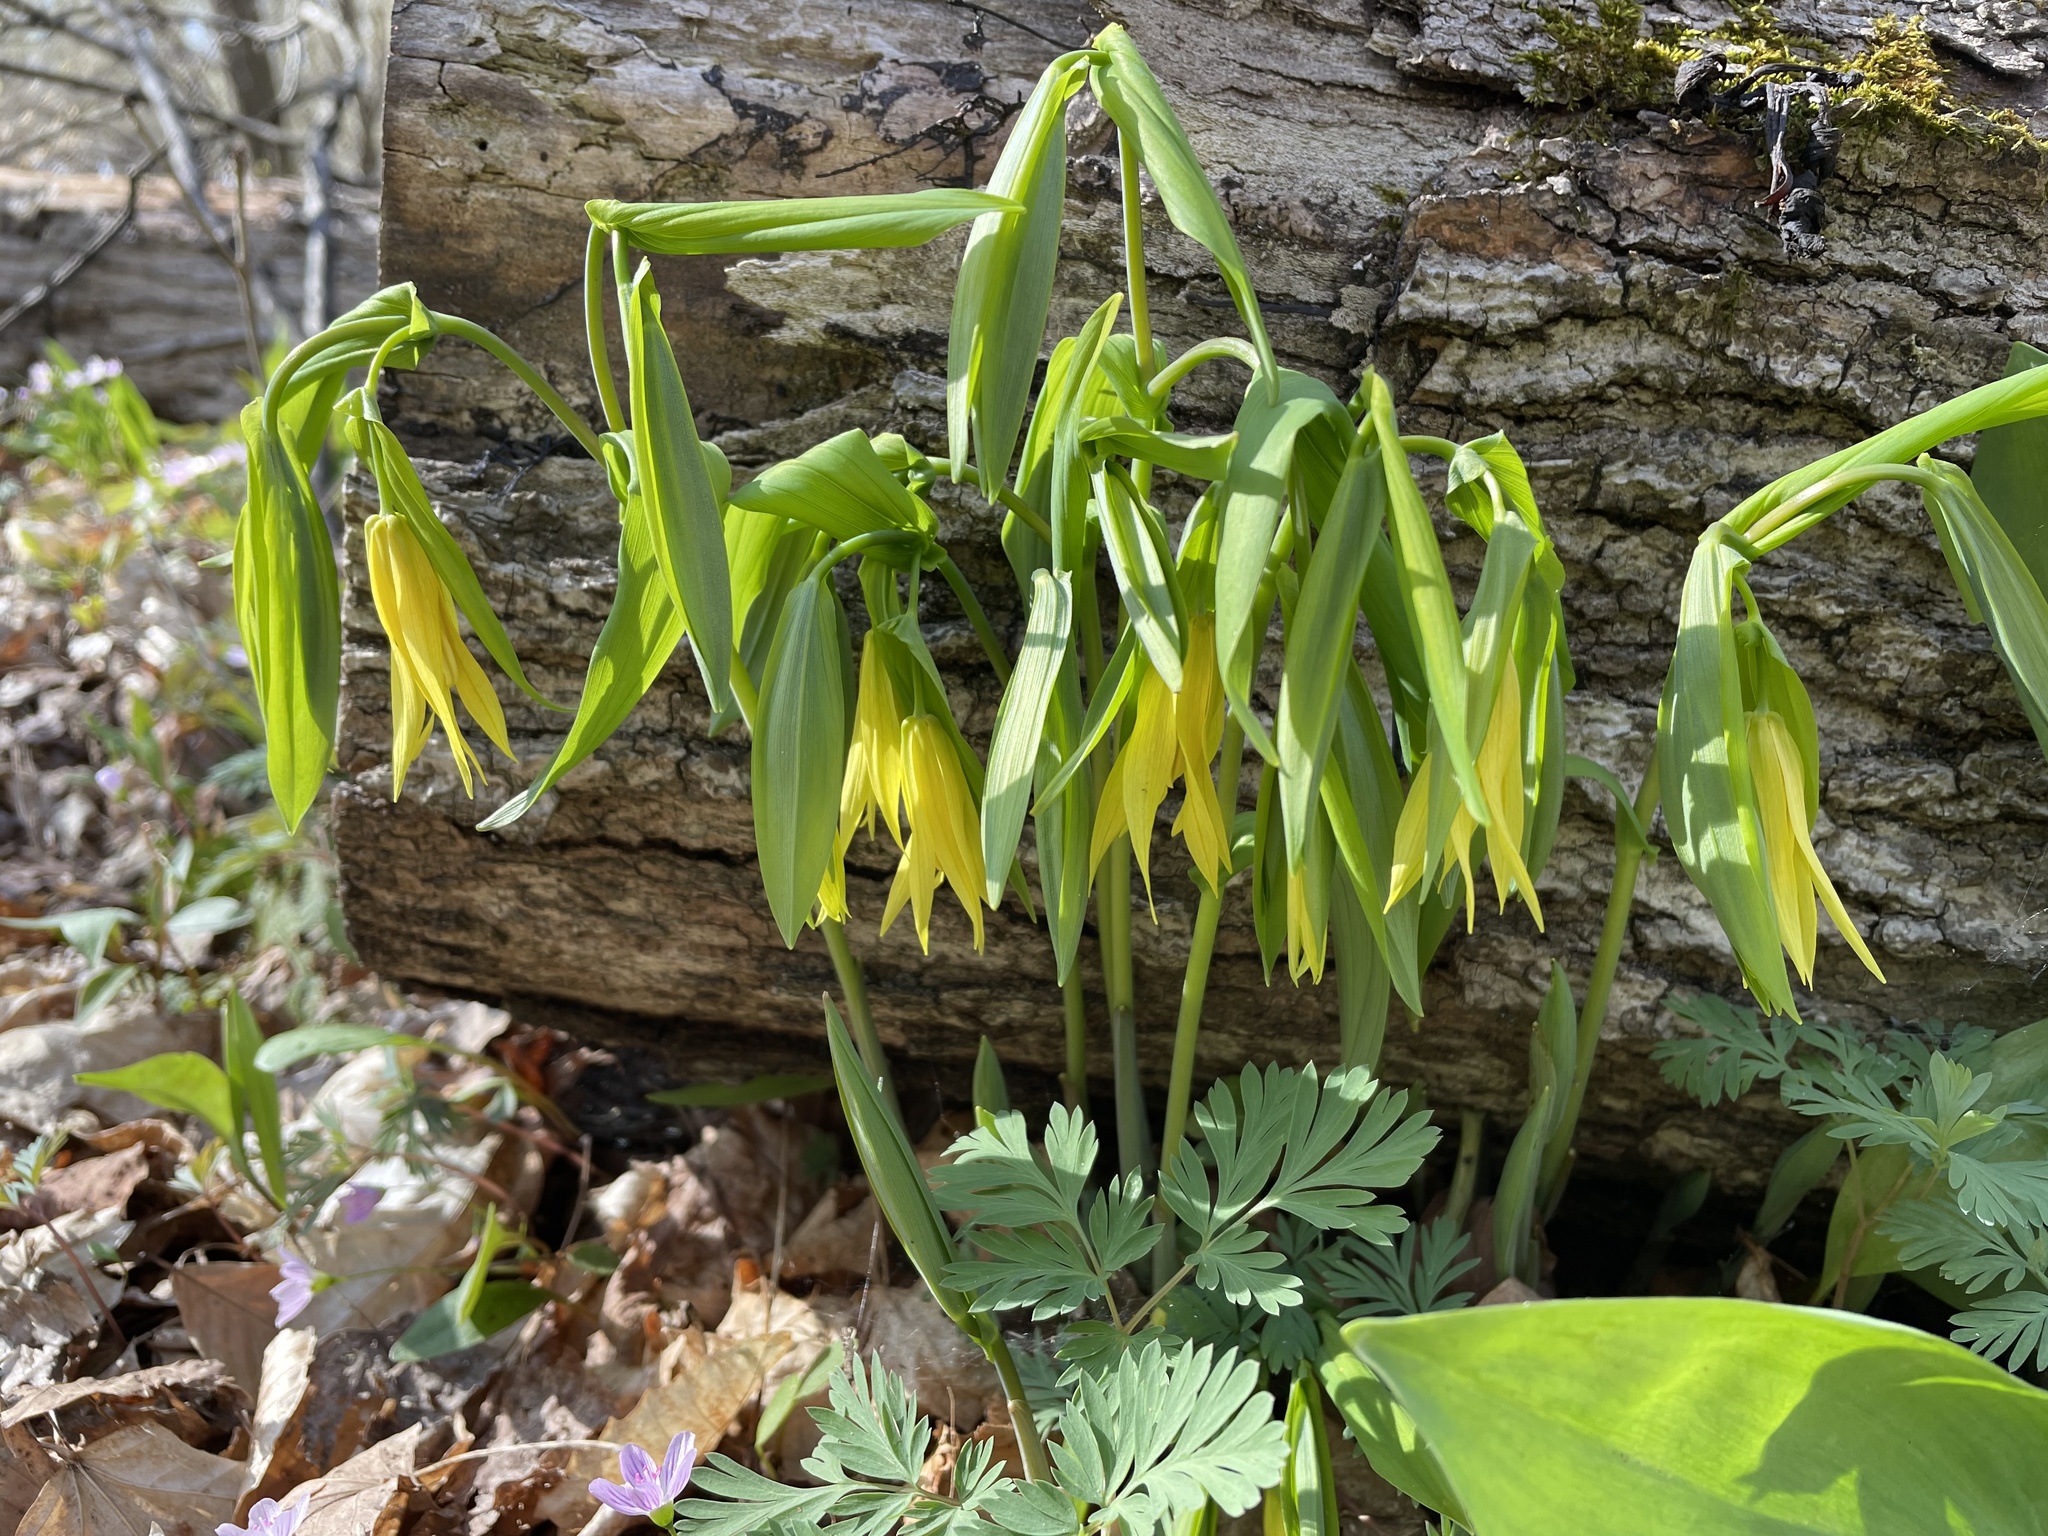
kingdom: Plantae
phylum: Tracheophyta
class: Liliopsida
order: Liliales
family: Colchicaceae
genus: Uvularia
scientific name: Uvularia grandiflora
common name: Bellwort
